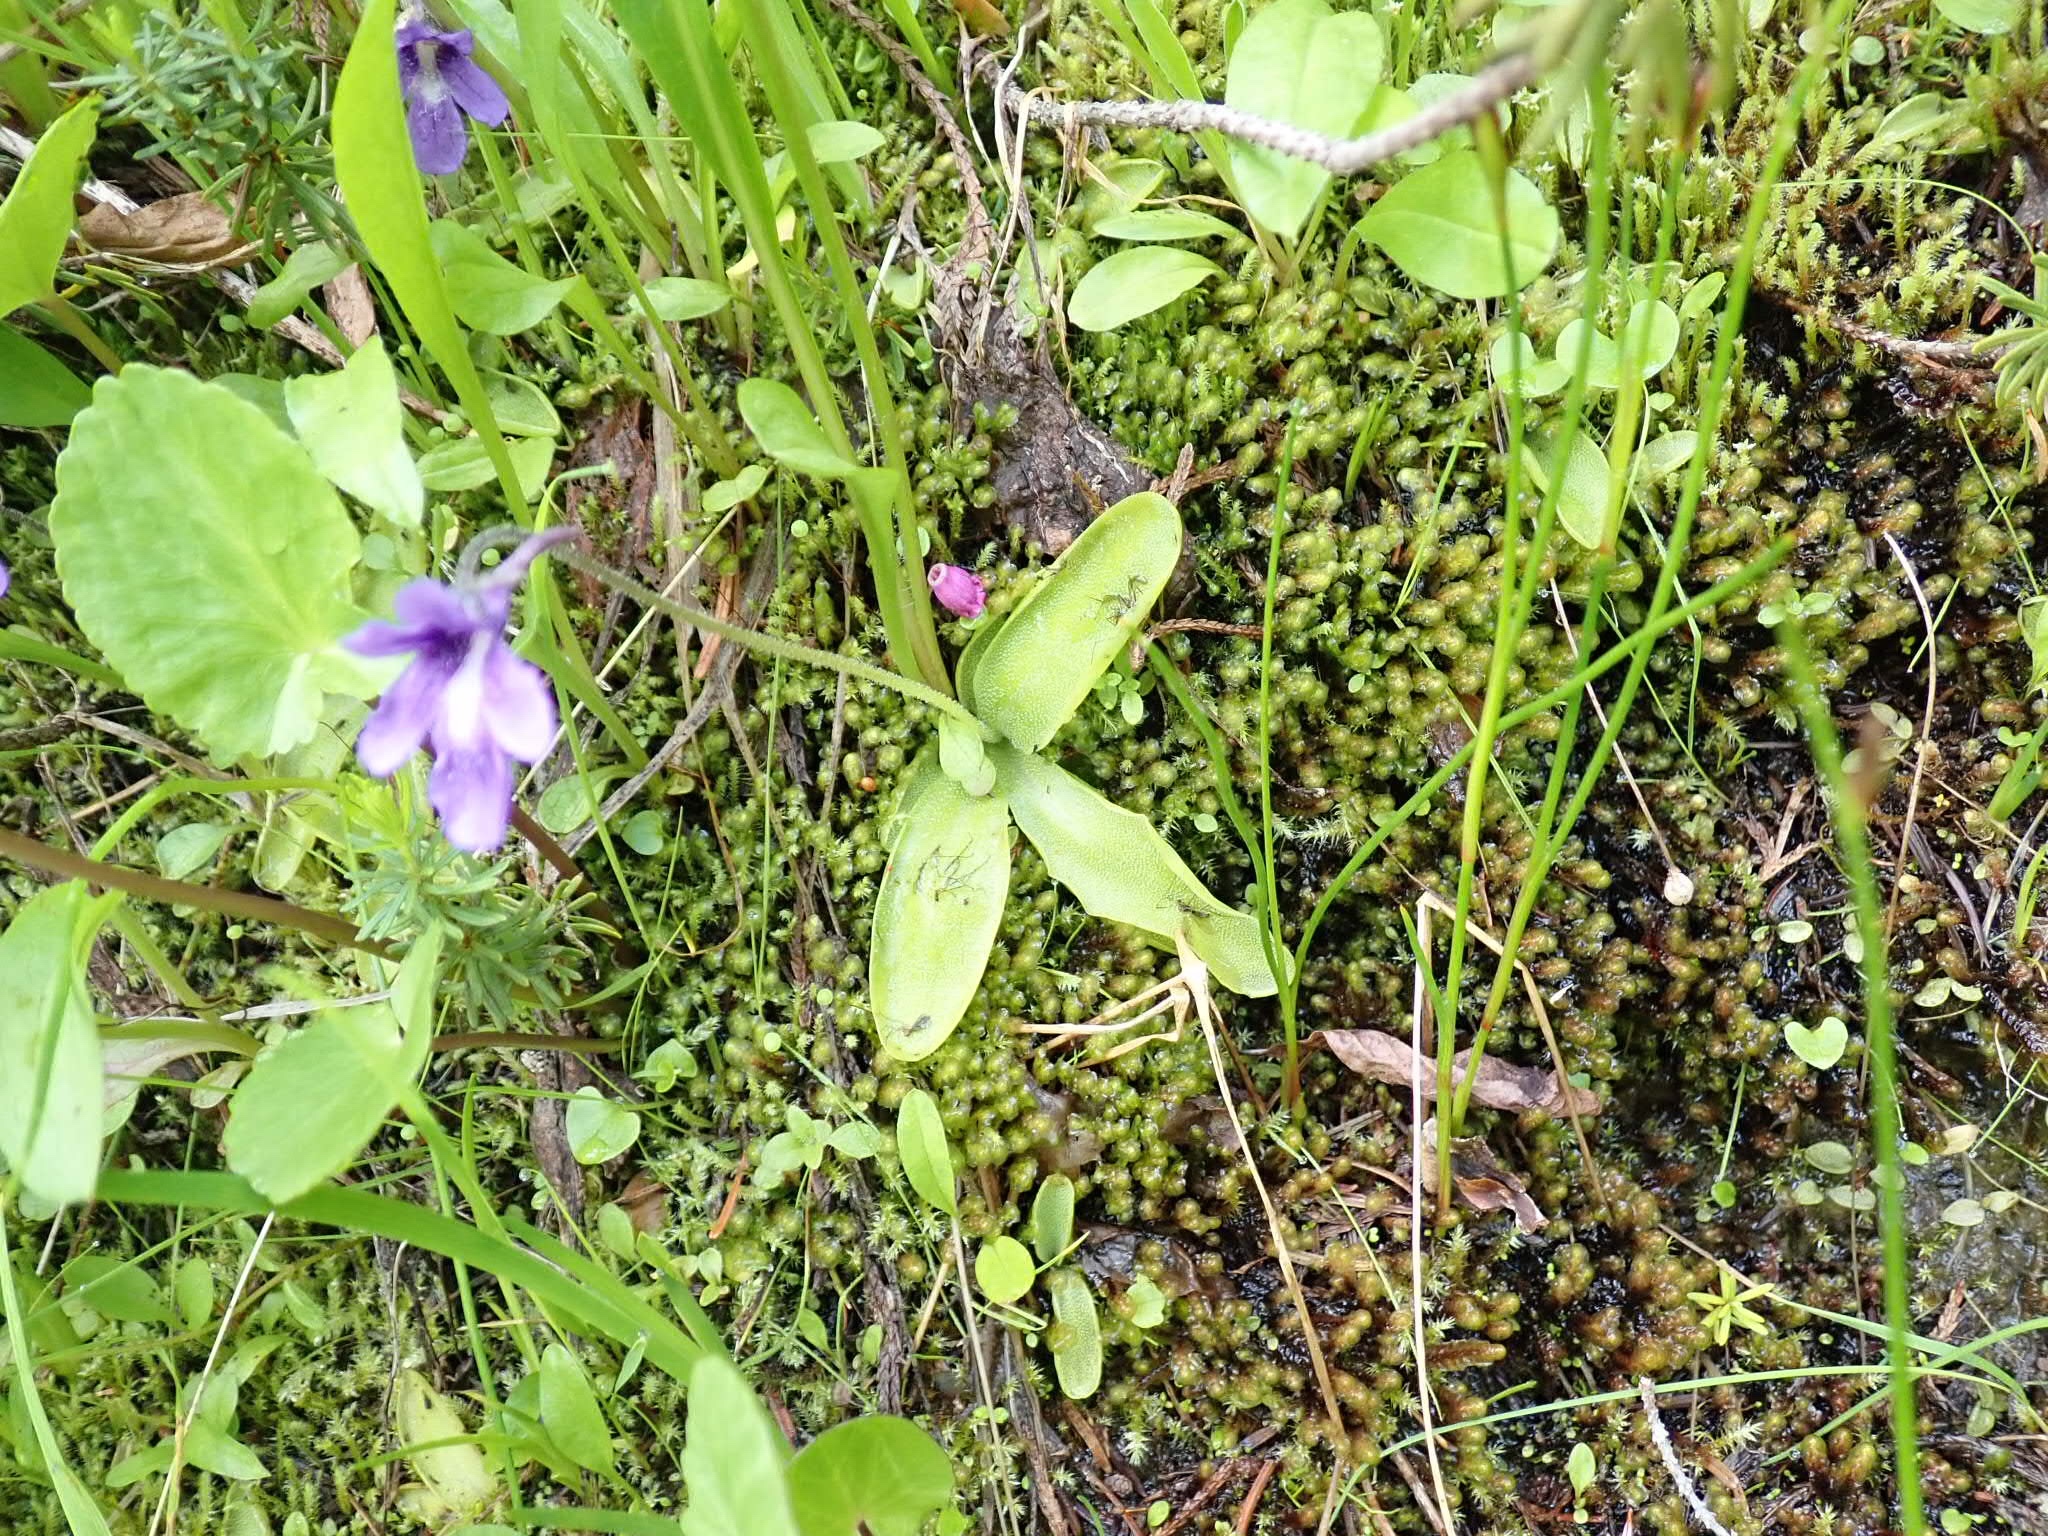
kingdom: Plantae
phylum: Tracheophyta
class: Magnoliopsida
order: Lamiales
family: Lentibulariaceae
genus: Pinguicula
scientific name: Pinguicula vulgaris
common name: Common butterwort
